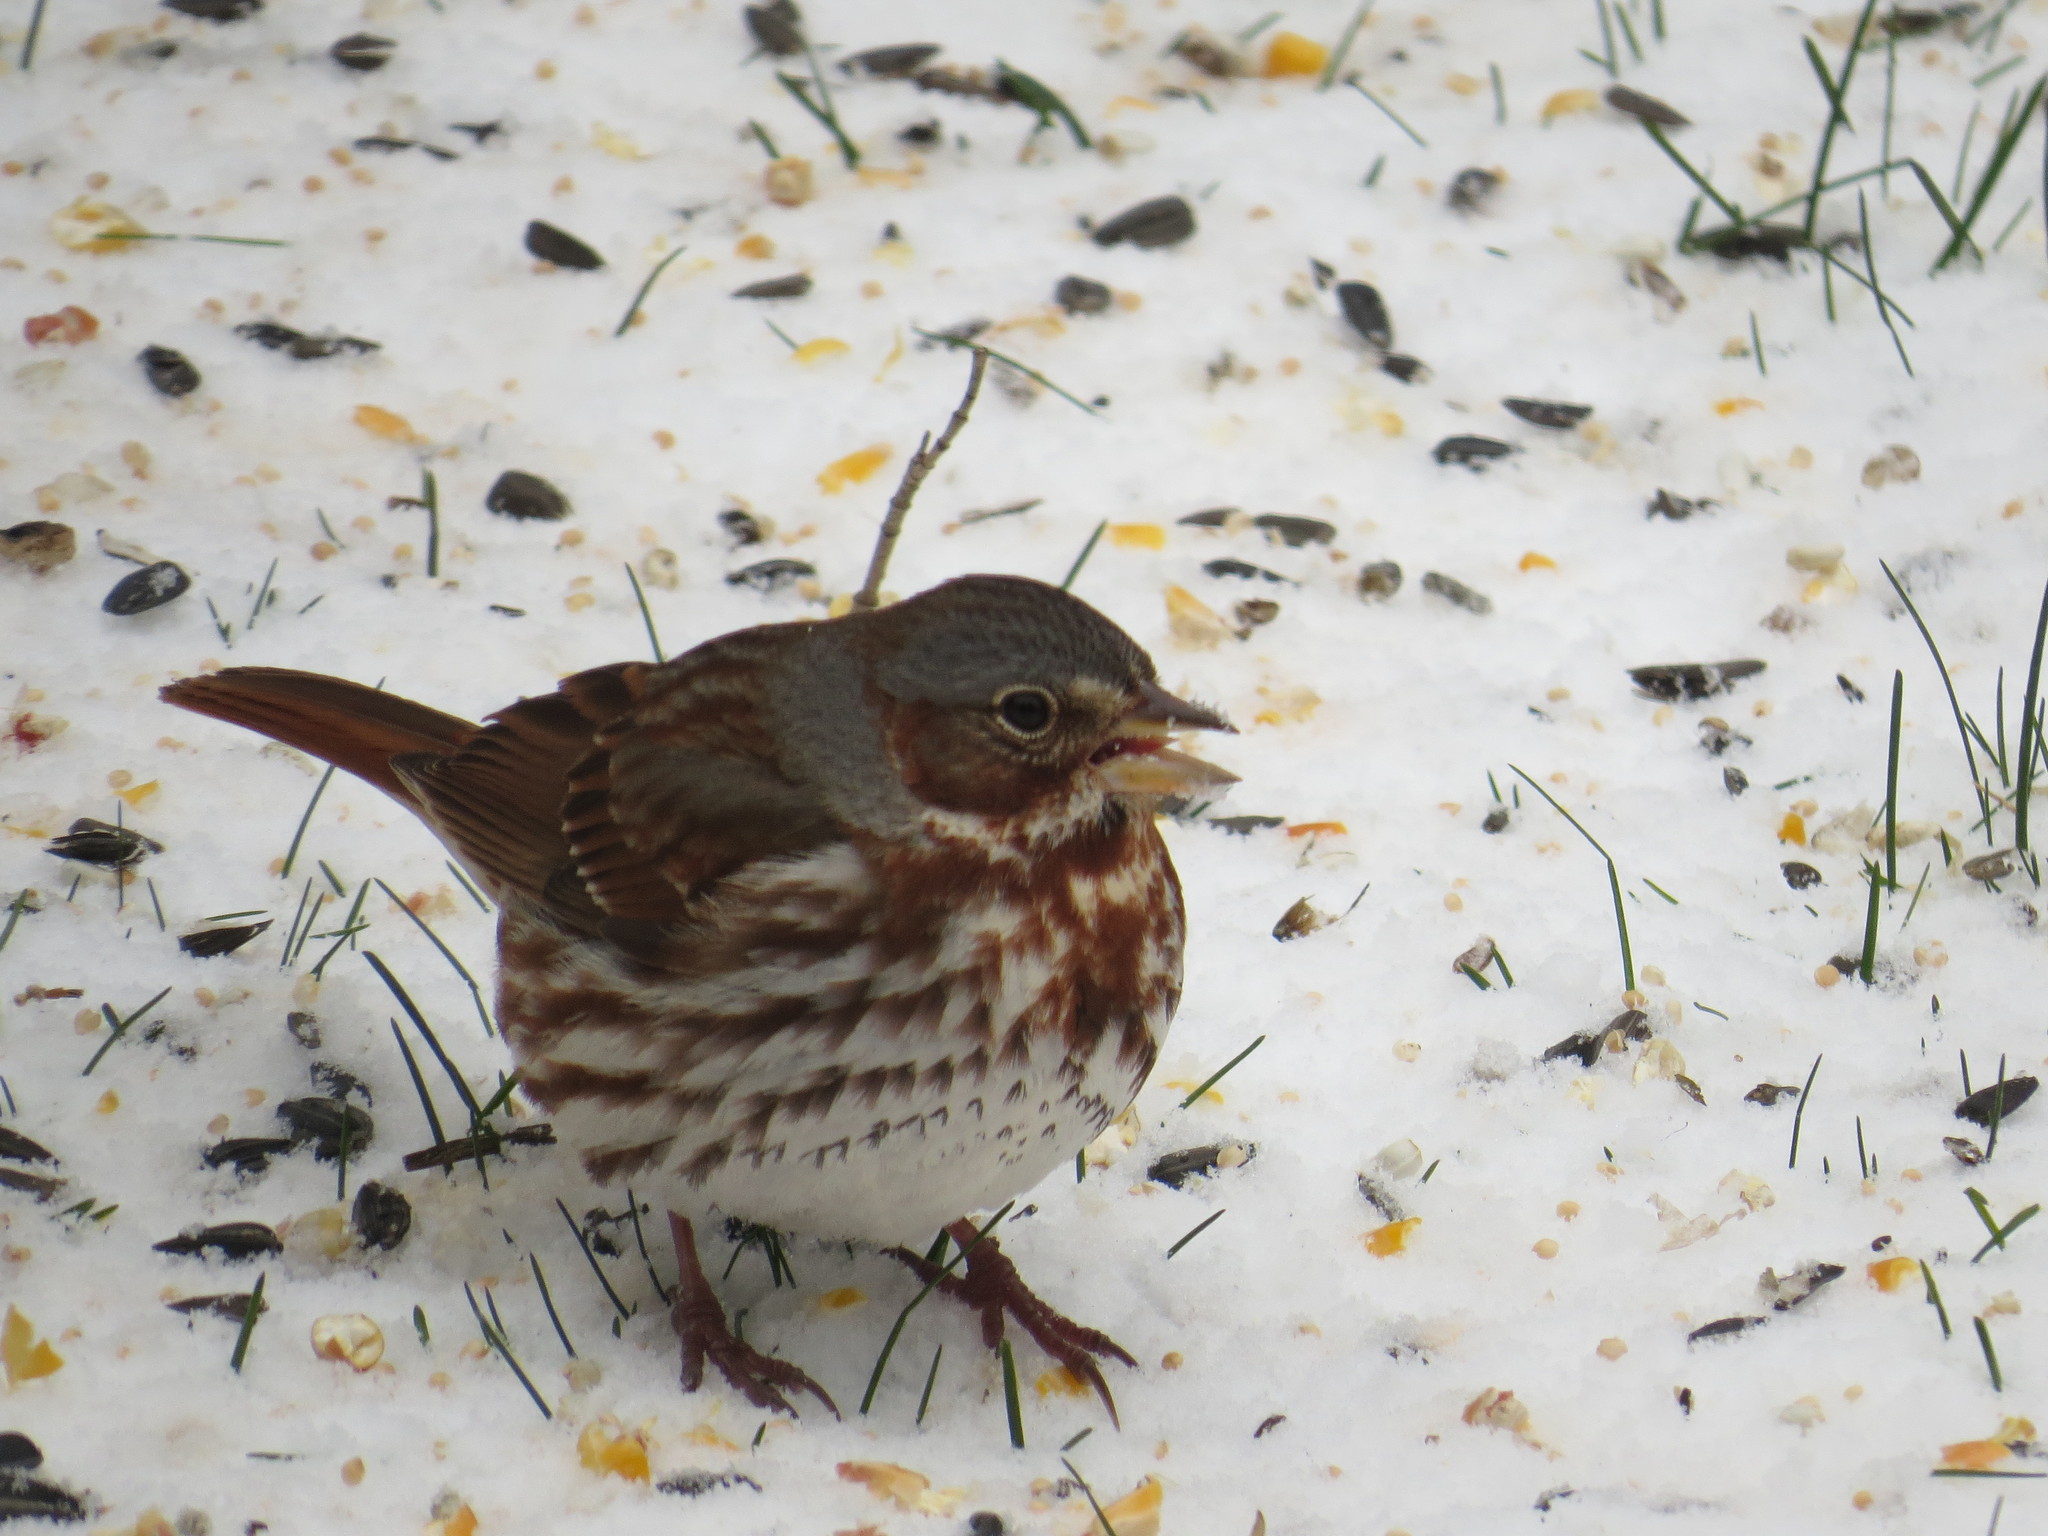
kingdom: Animalia
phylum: Chordata
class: Aves
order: Passeriformes
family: Passerellidae
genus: Passerella
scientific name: Passerella iliaca
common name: Fox sparrow
